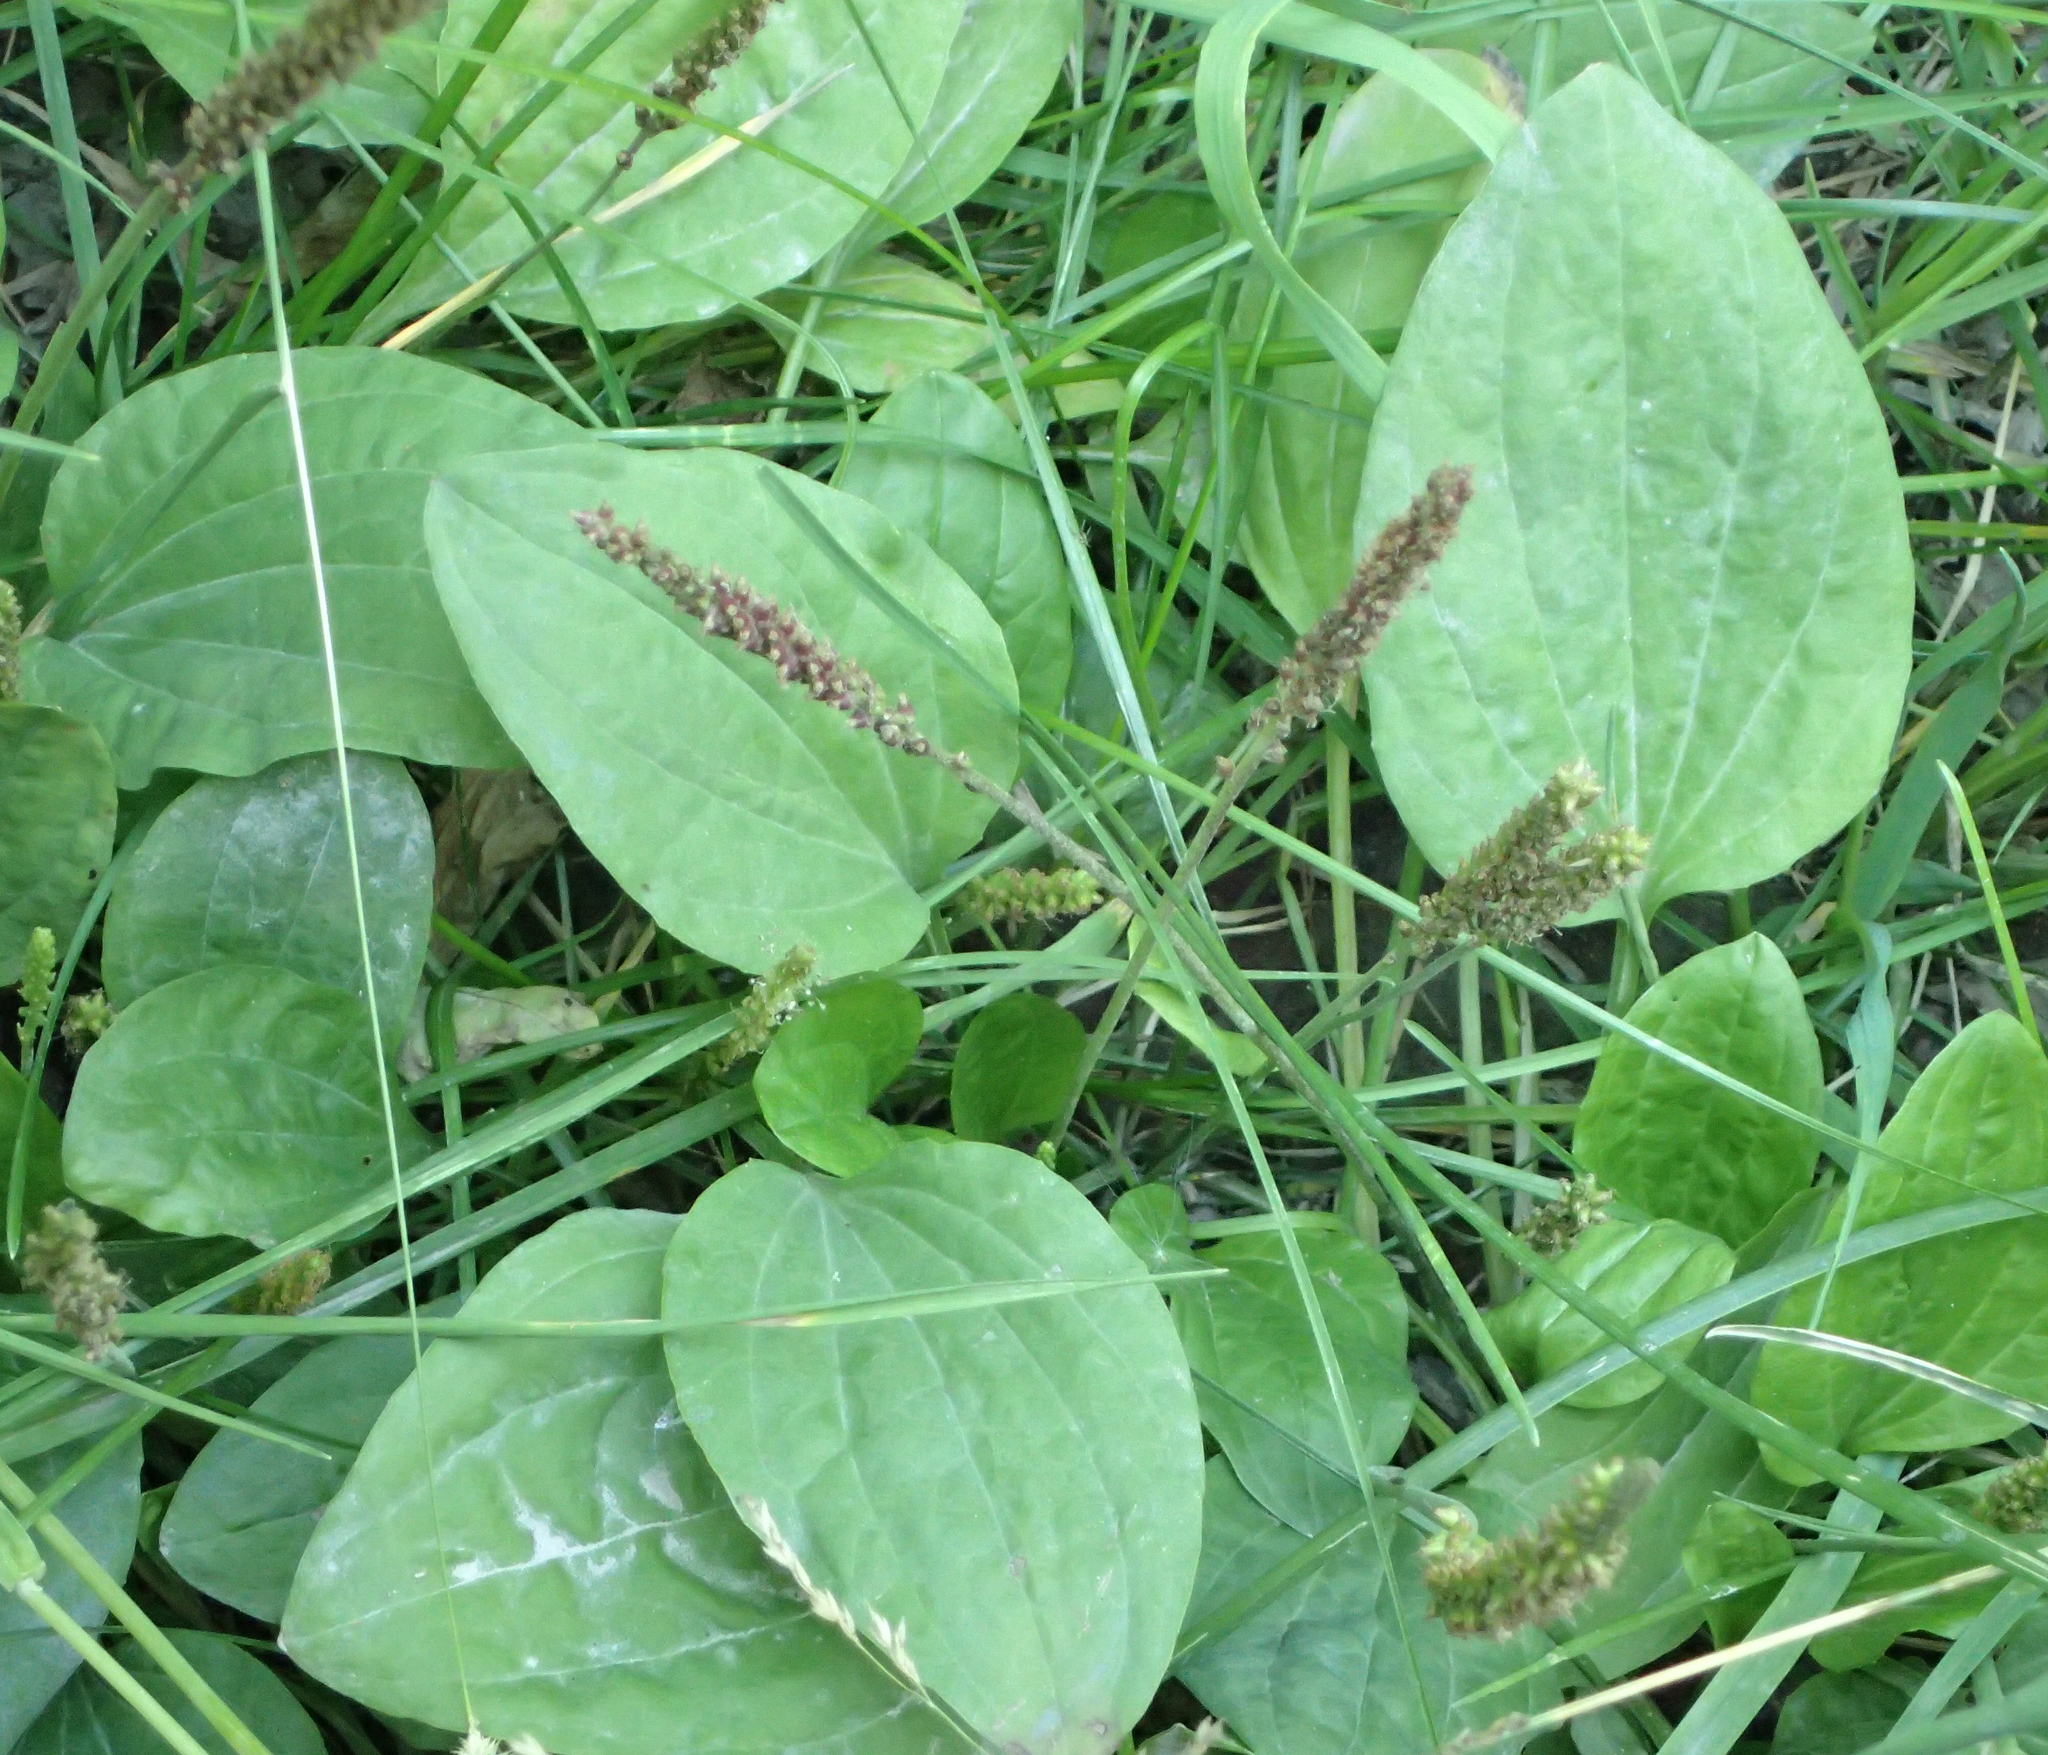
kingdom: Plantae
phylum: Tracheophyta
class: Magnoliopsida
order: Lamiales
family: Plantaginaceae
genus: Plantago
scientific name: Plantago major
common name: Common plantain
